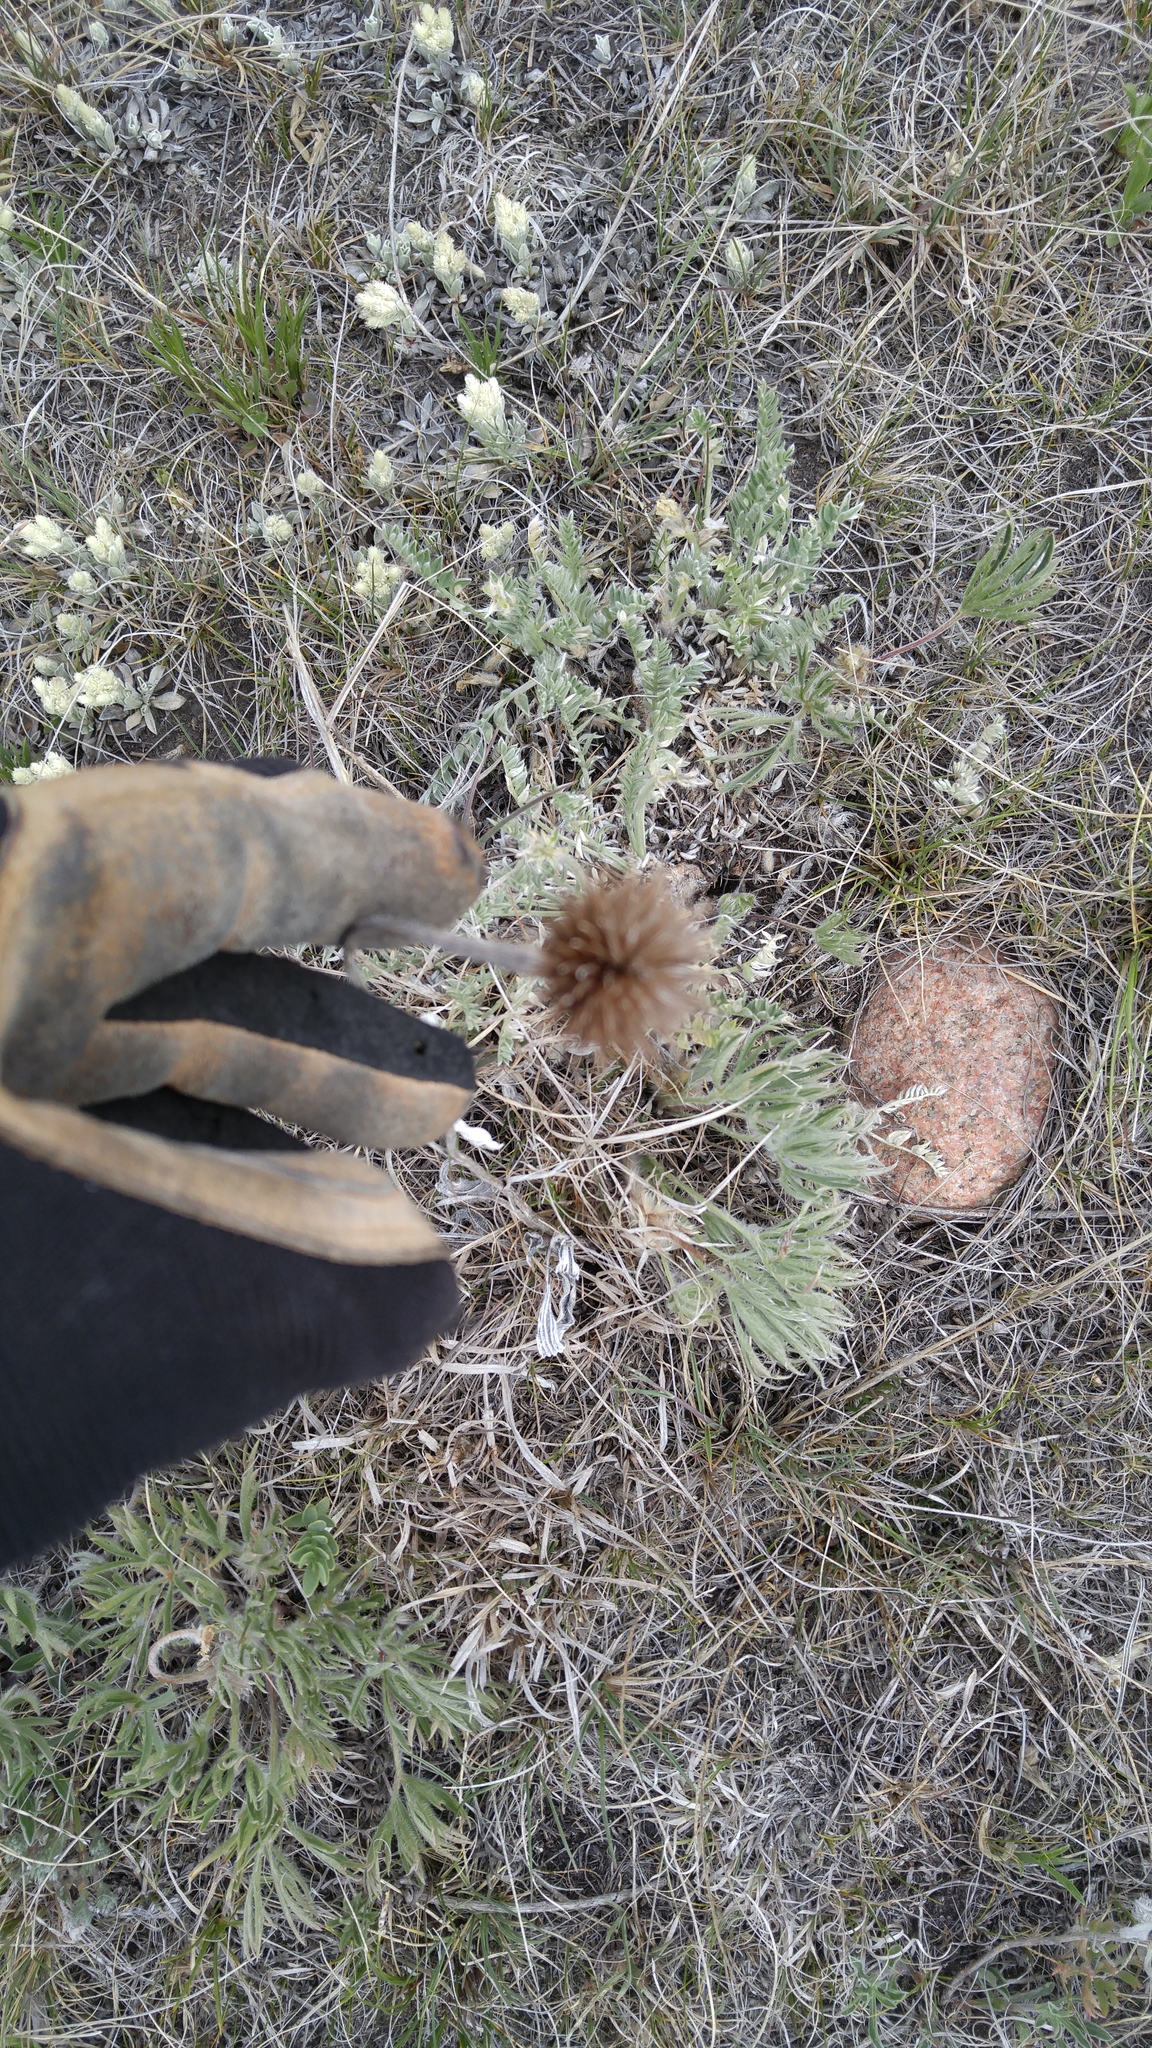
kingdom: Plantae
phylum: Tracheophyta
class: Magnoliopsida
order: Asterales
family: Asteraceae
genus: Echinacea
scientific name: Echinacea angustifolia
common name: Black-sampson echinacea
